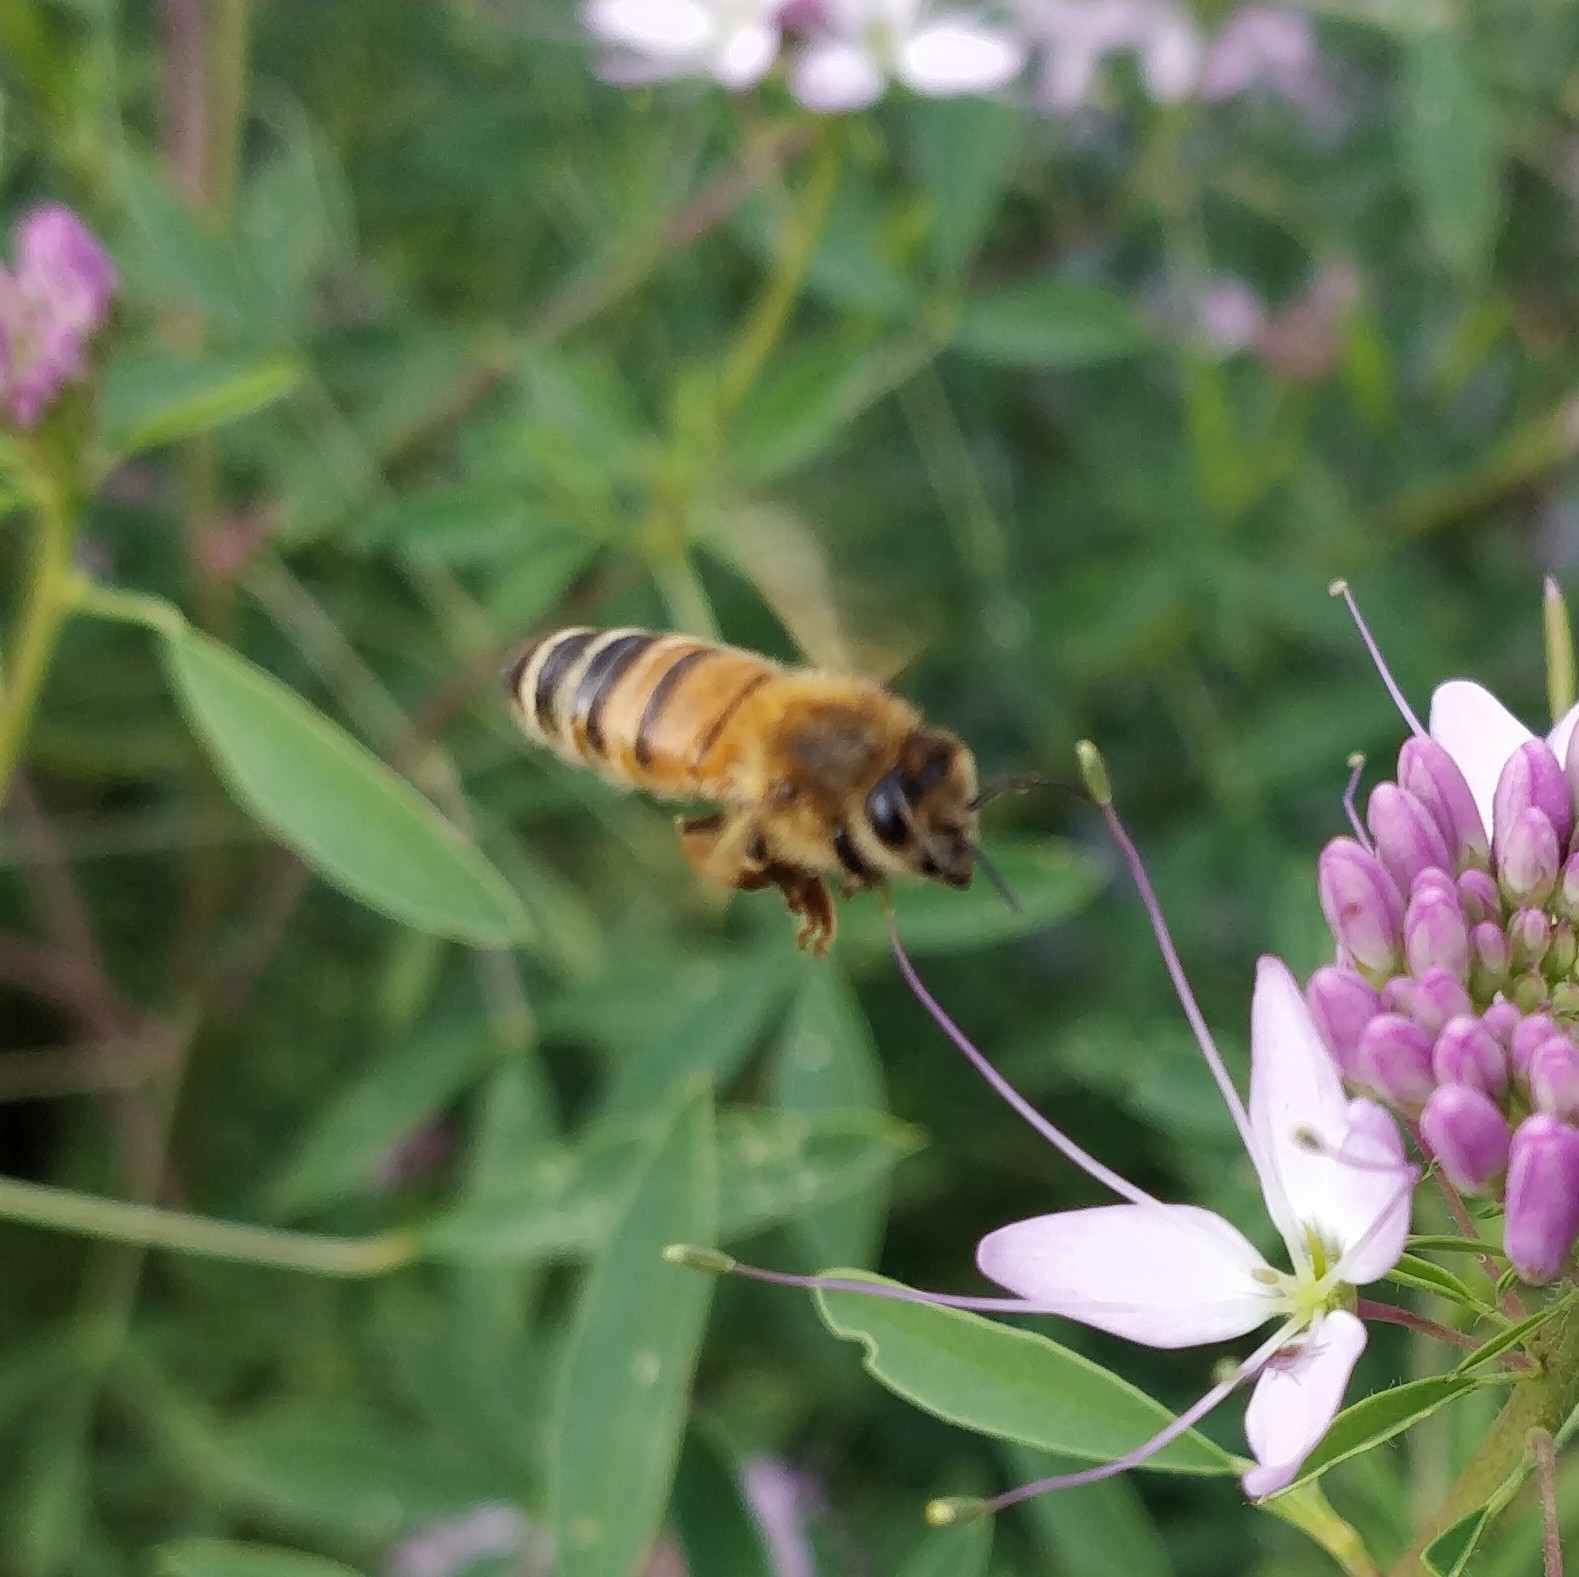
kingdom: Animalia
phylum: Arthropoda
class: Insecta
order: Hymenoptera
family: Apidae
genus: Apis
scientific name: Apis mellifera
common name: Honey bee
